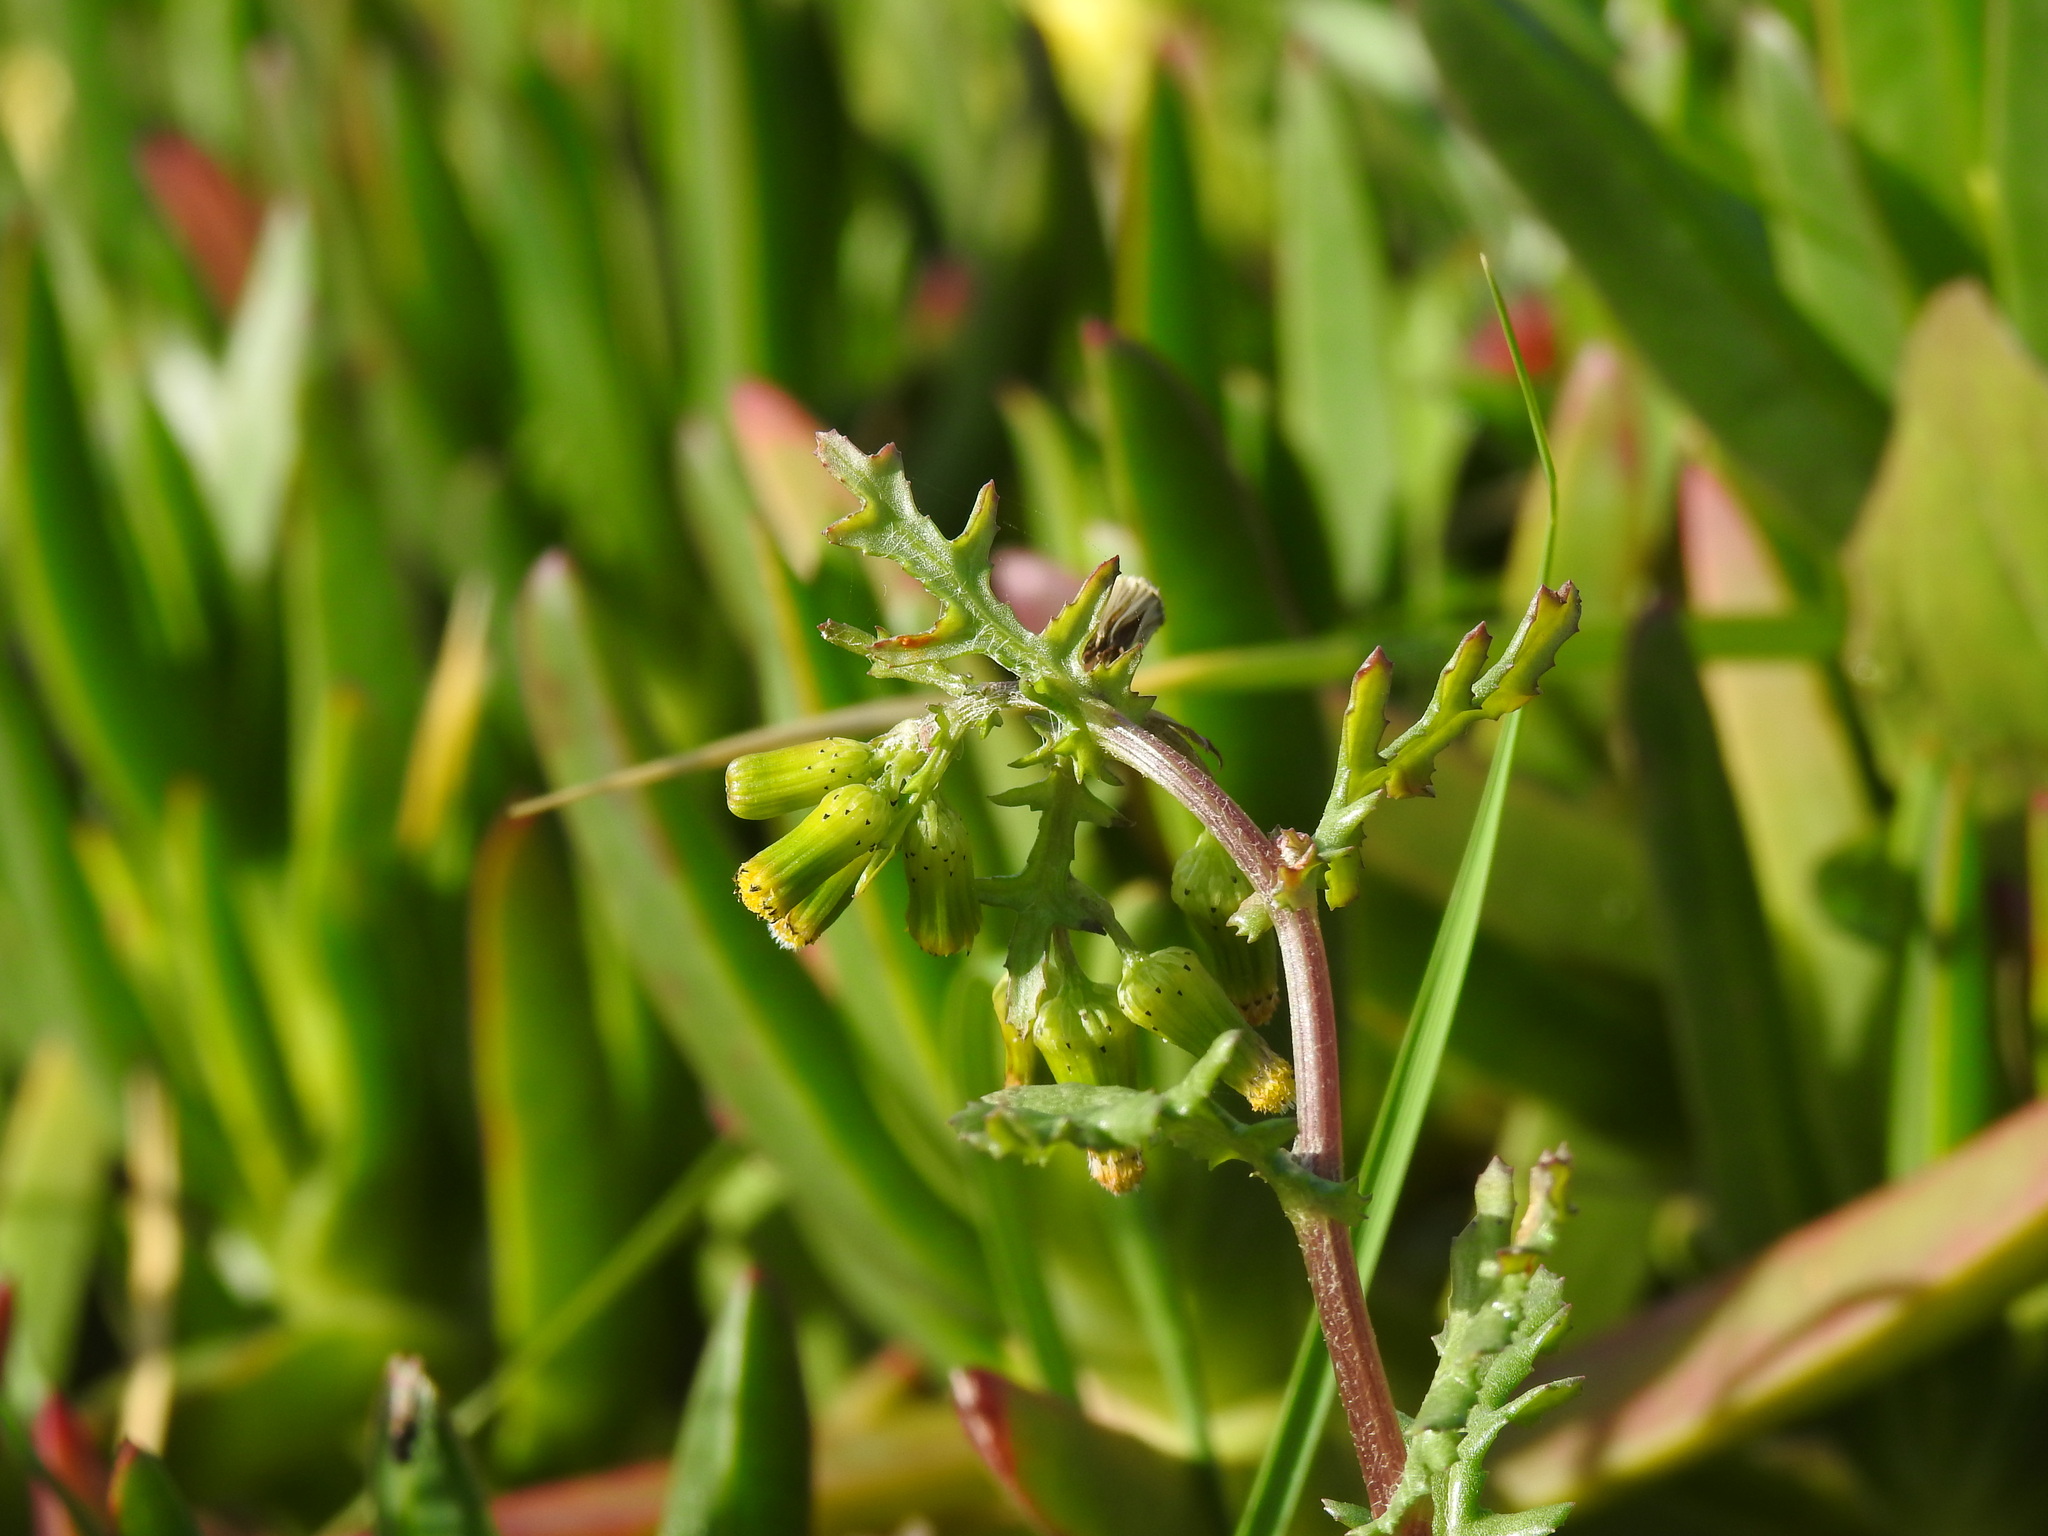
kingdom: Plantae
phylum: Tracheophyta
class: Magnoliopsida
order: Asterales
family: Asteraceae
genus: Senecio
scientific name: Senecio vulgaris
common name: Old-man-in-the-spring
